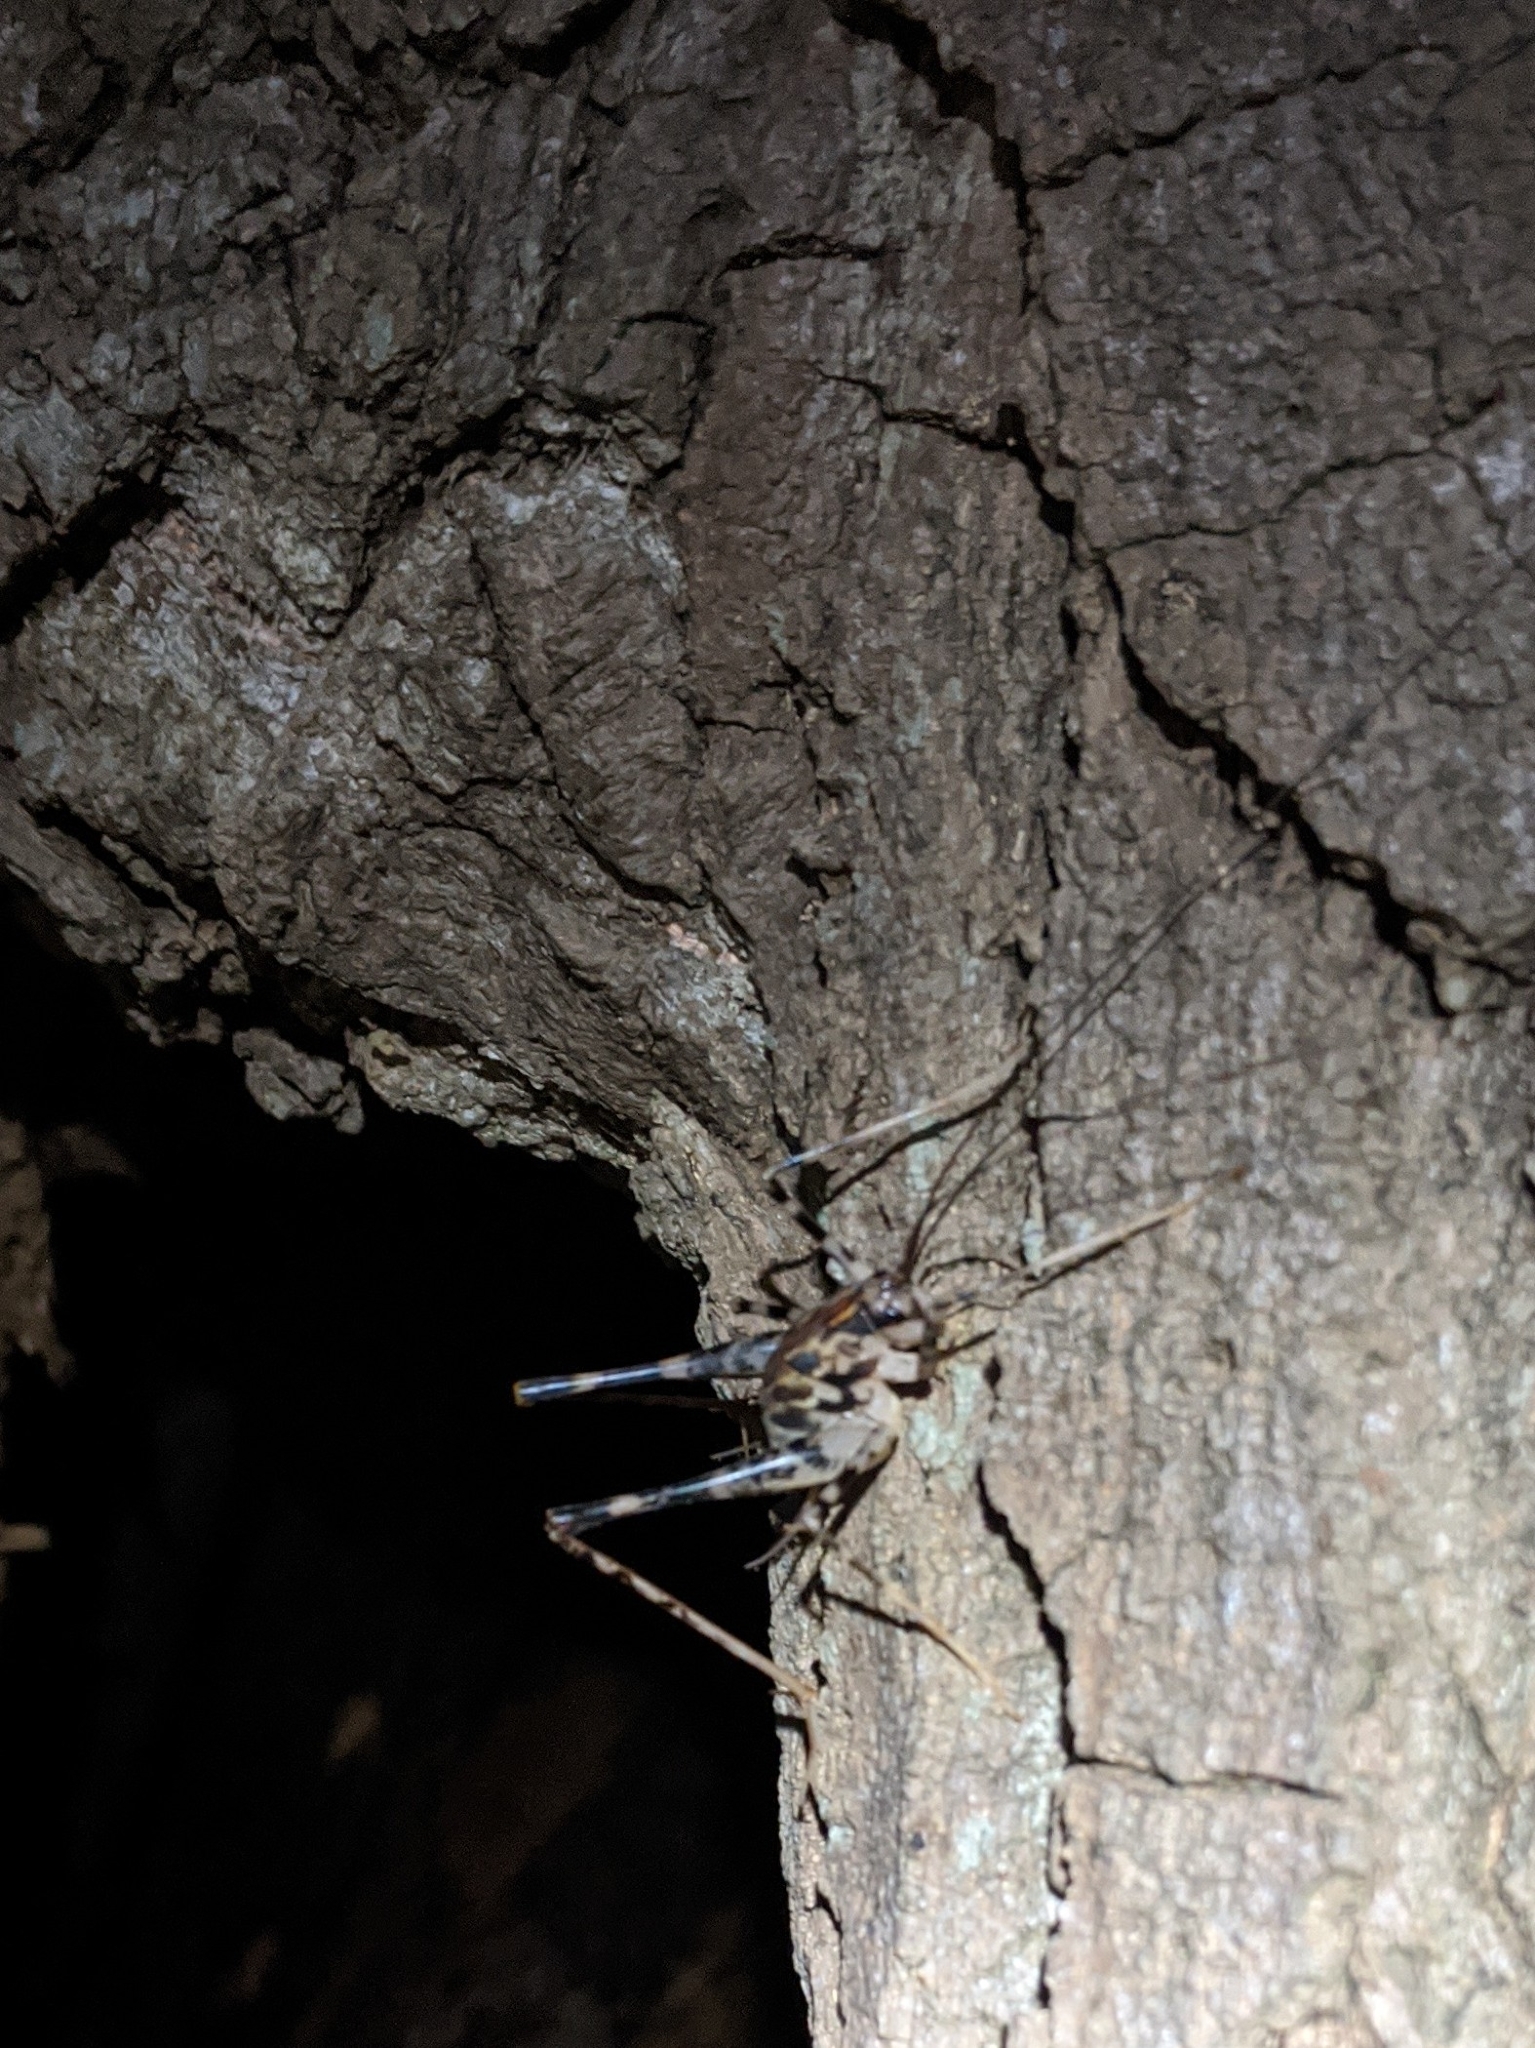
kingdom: Animalia
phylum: Arthropoda
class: Insecta
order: Orthoptera
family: Rhaphidophoridae
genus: Diestrammena
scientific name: Diestrammena japanica
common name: Japanese camel cricket
